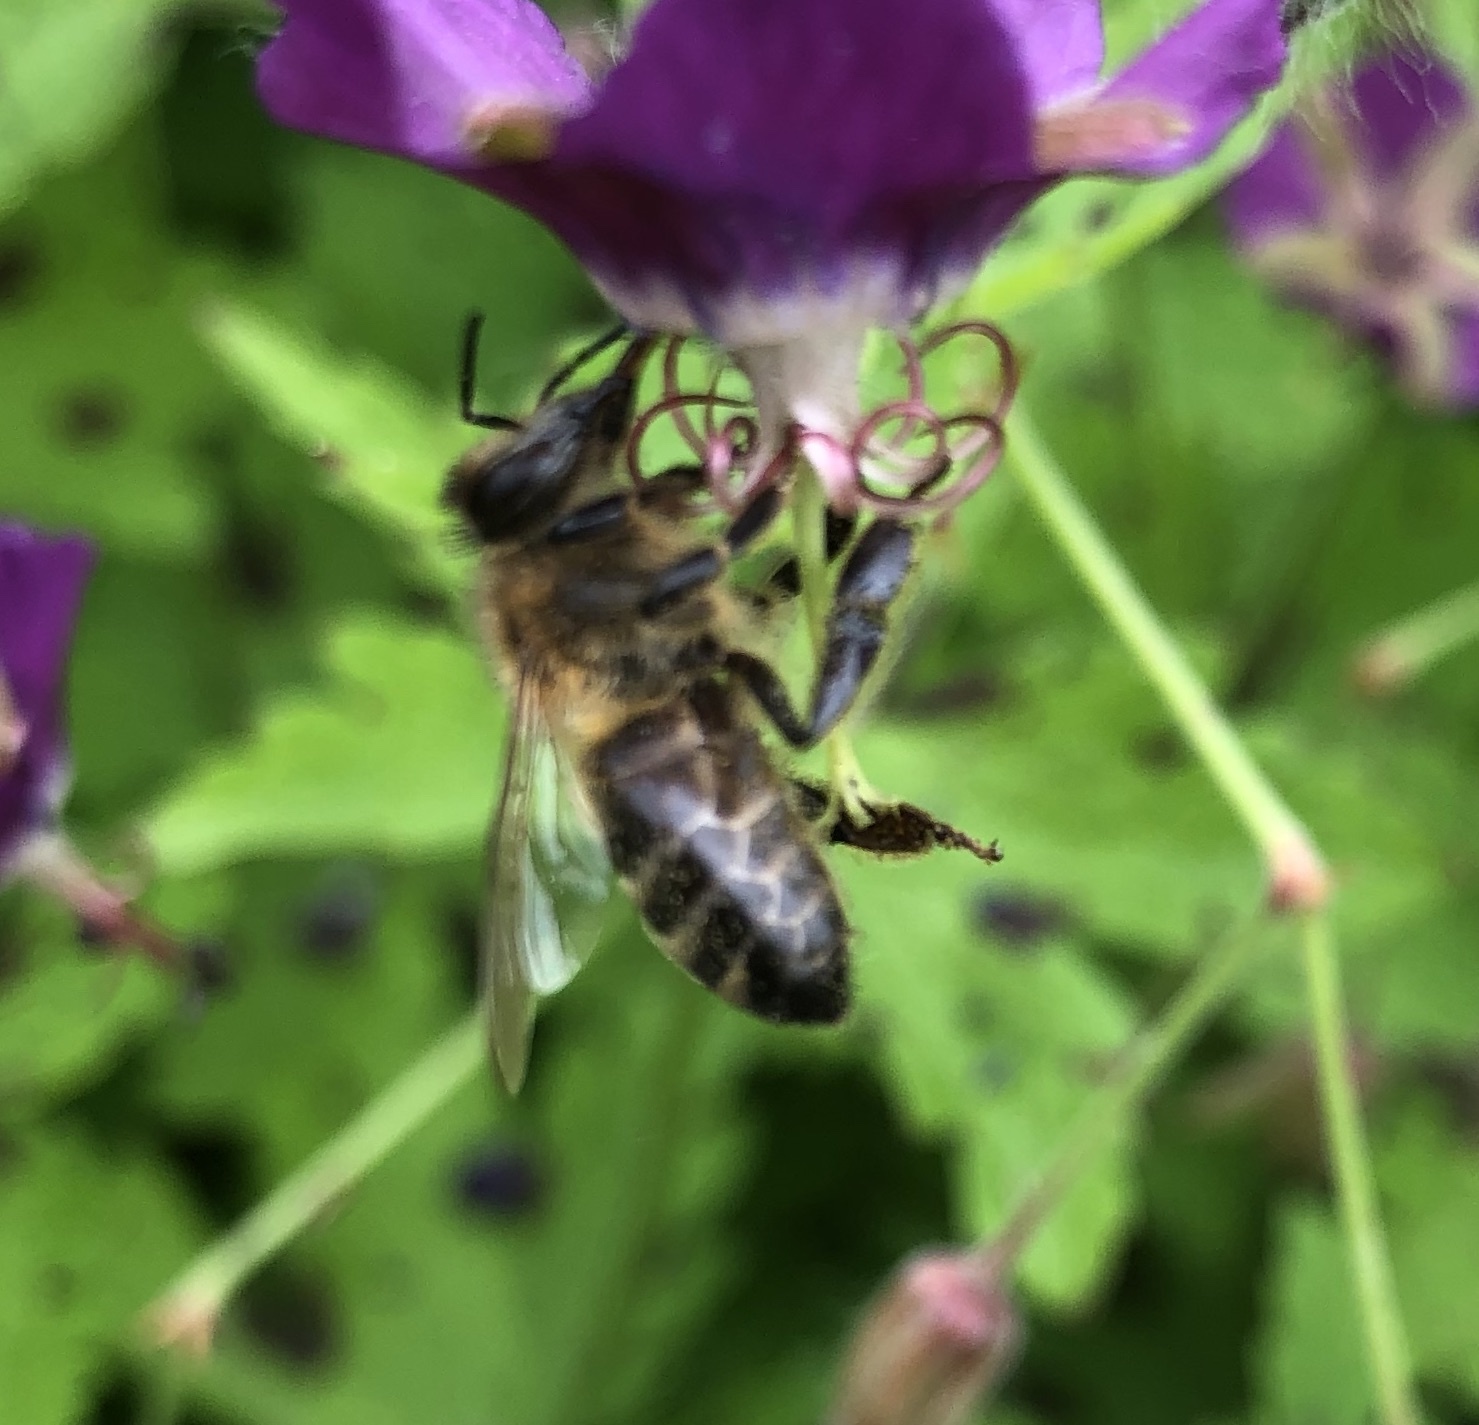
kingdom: Animalia
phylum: Arthropoda
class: Insecta
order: Hymenoptera
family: Apidae
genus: Apis
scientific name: Apis mellifera
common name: Honey bee
